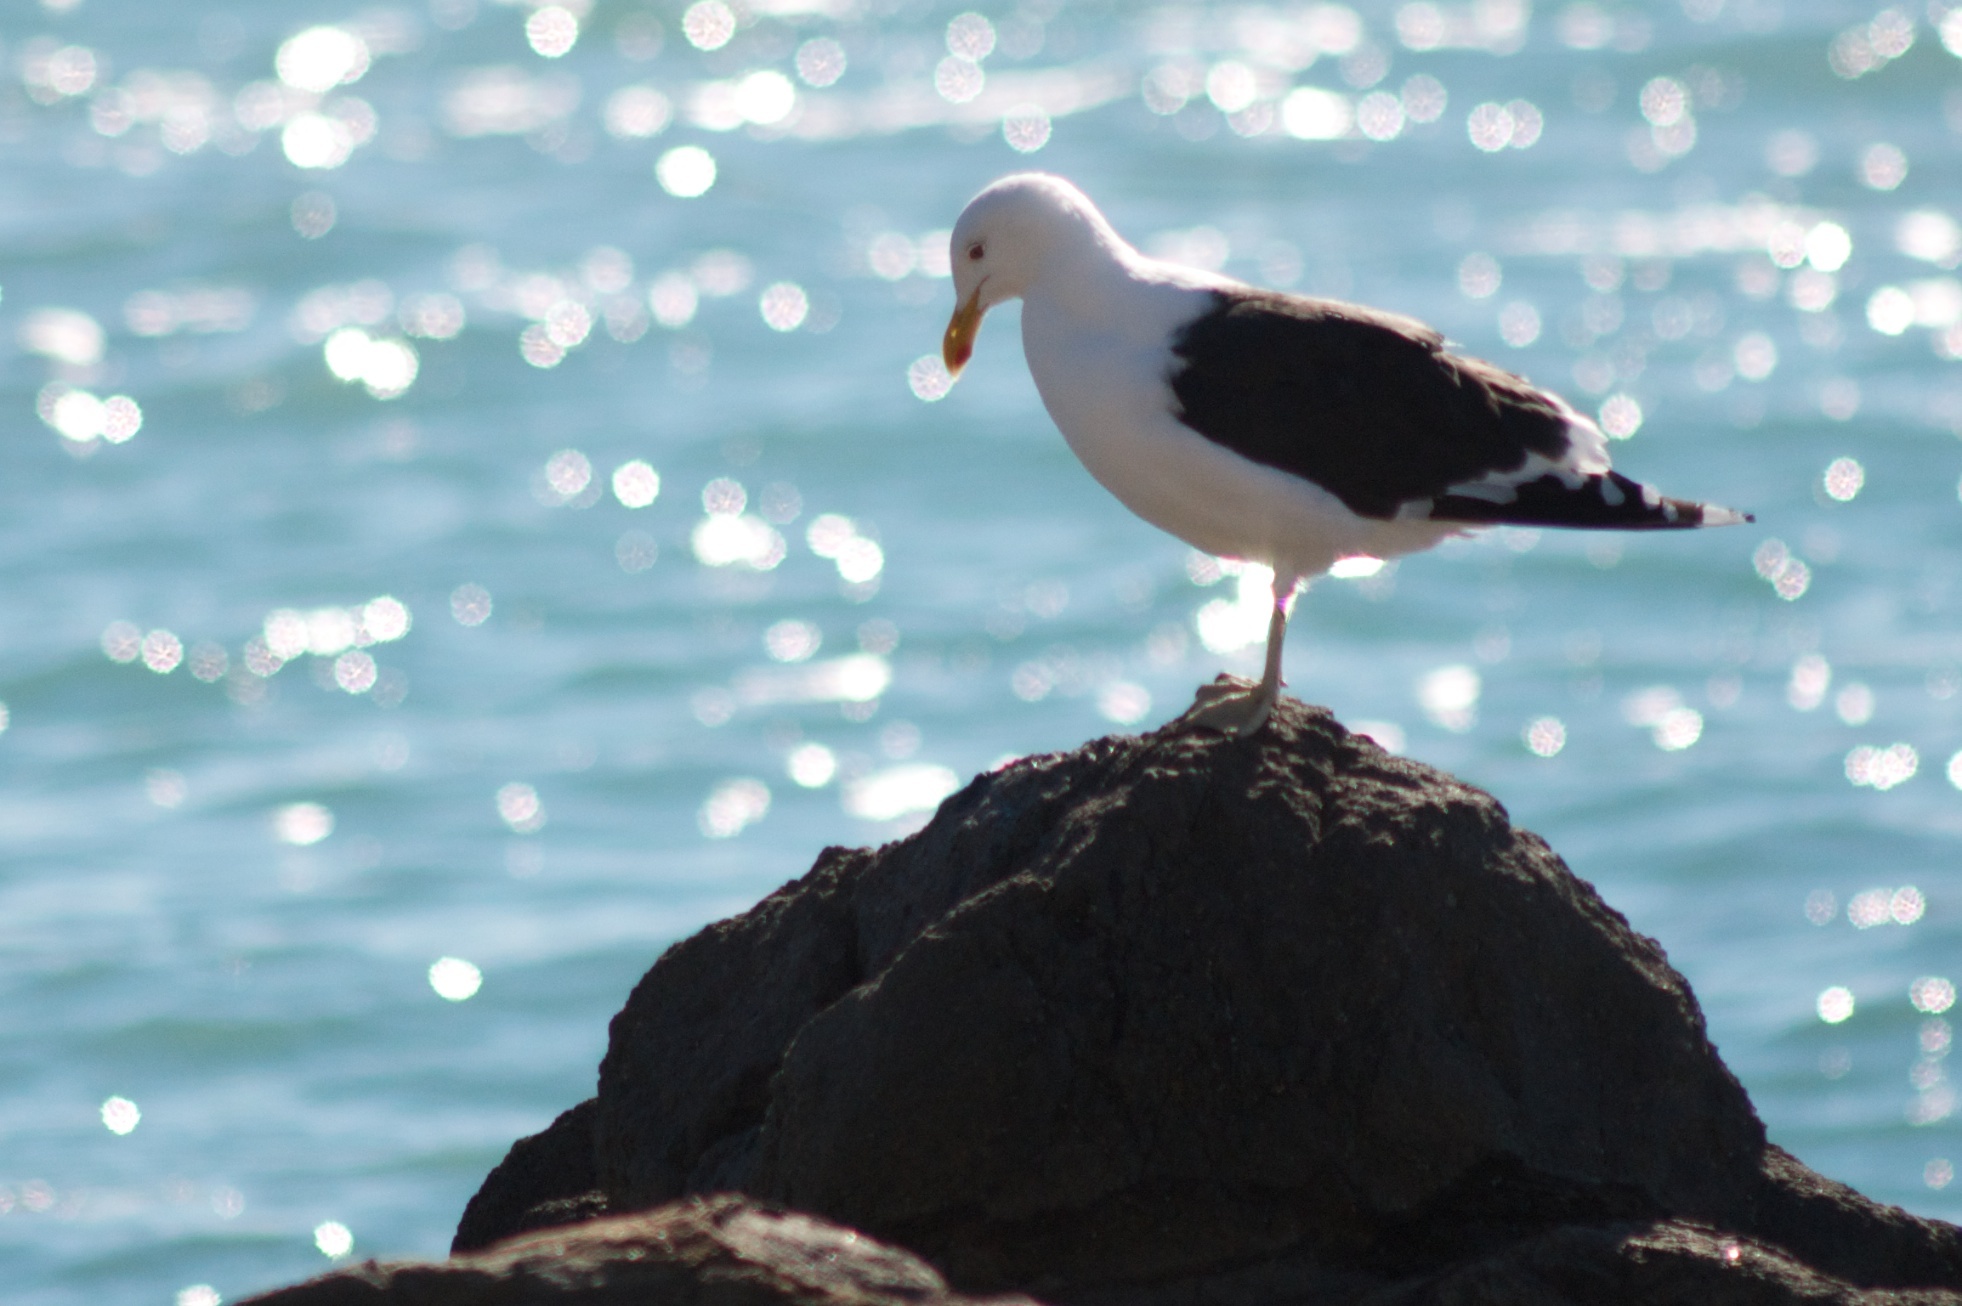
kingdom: Animalia
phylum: Chordata
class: Aves
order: Charadriiformes
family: Laridae
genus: Larus
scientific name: Larus dominicanus
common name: Kelp gull
